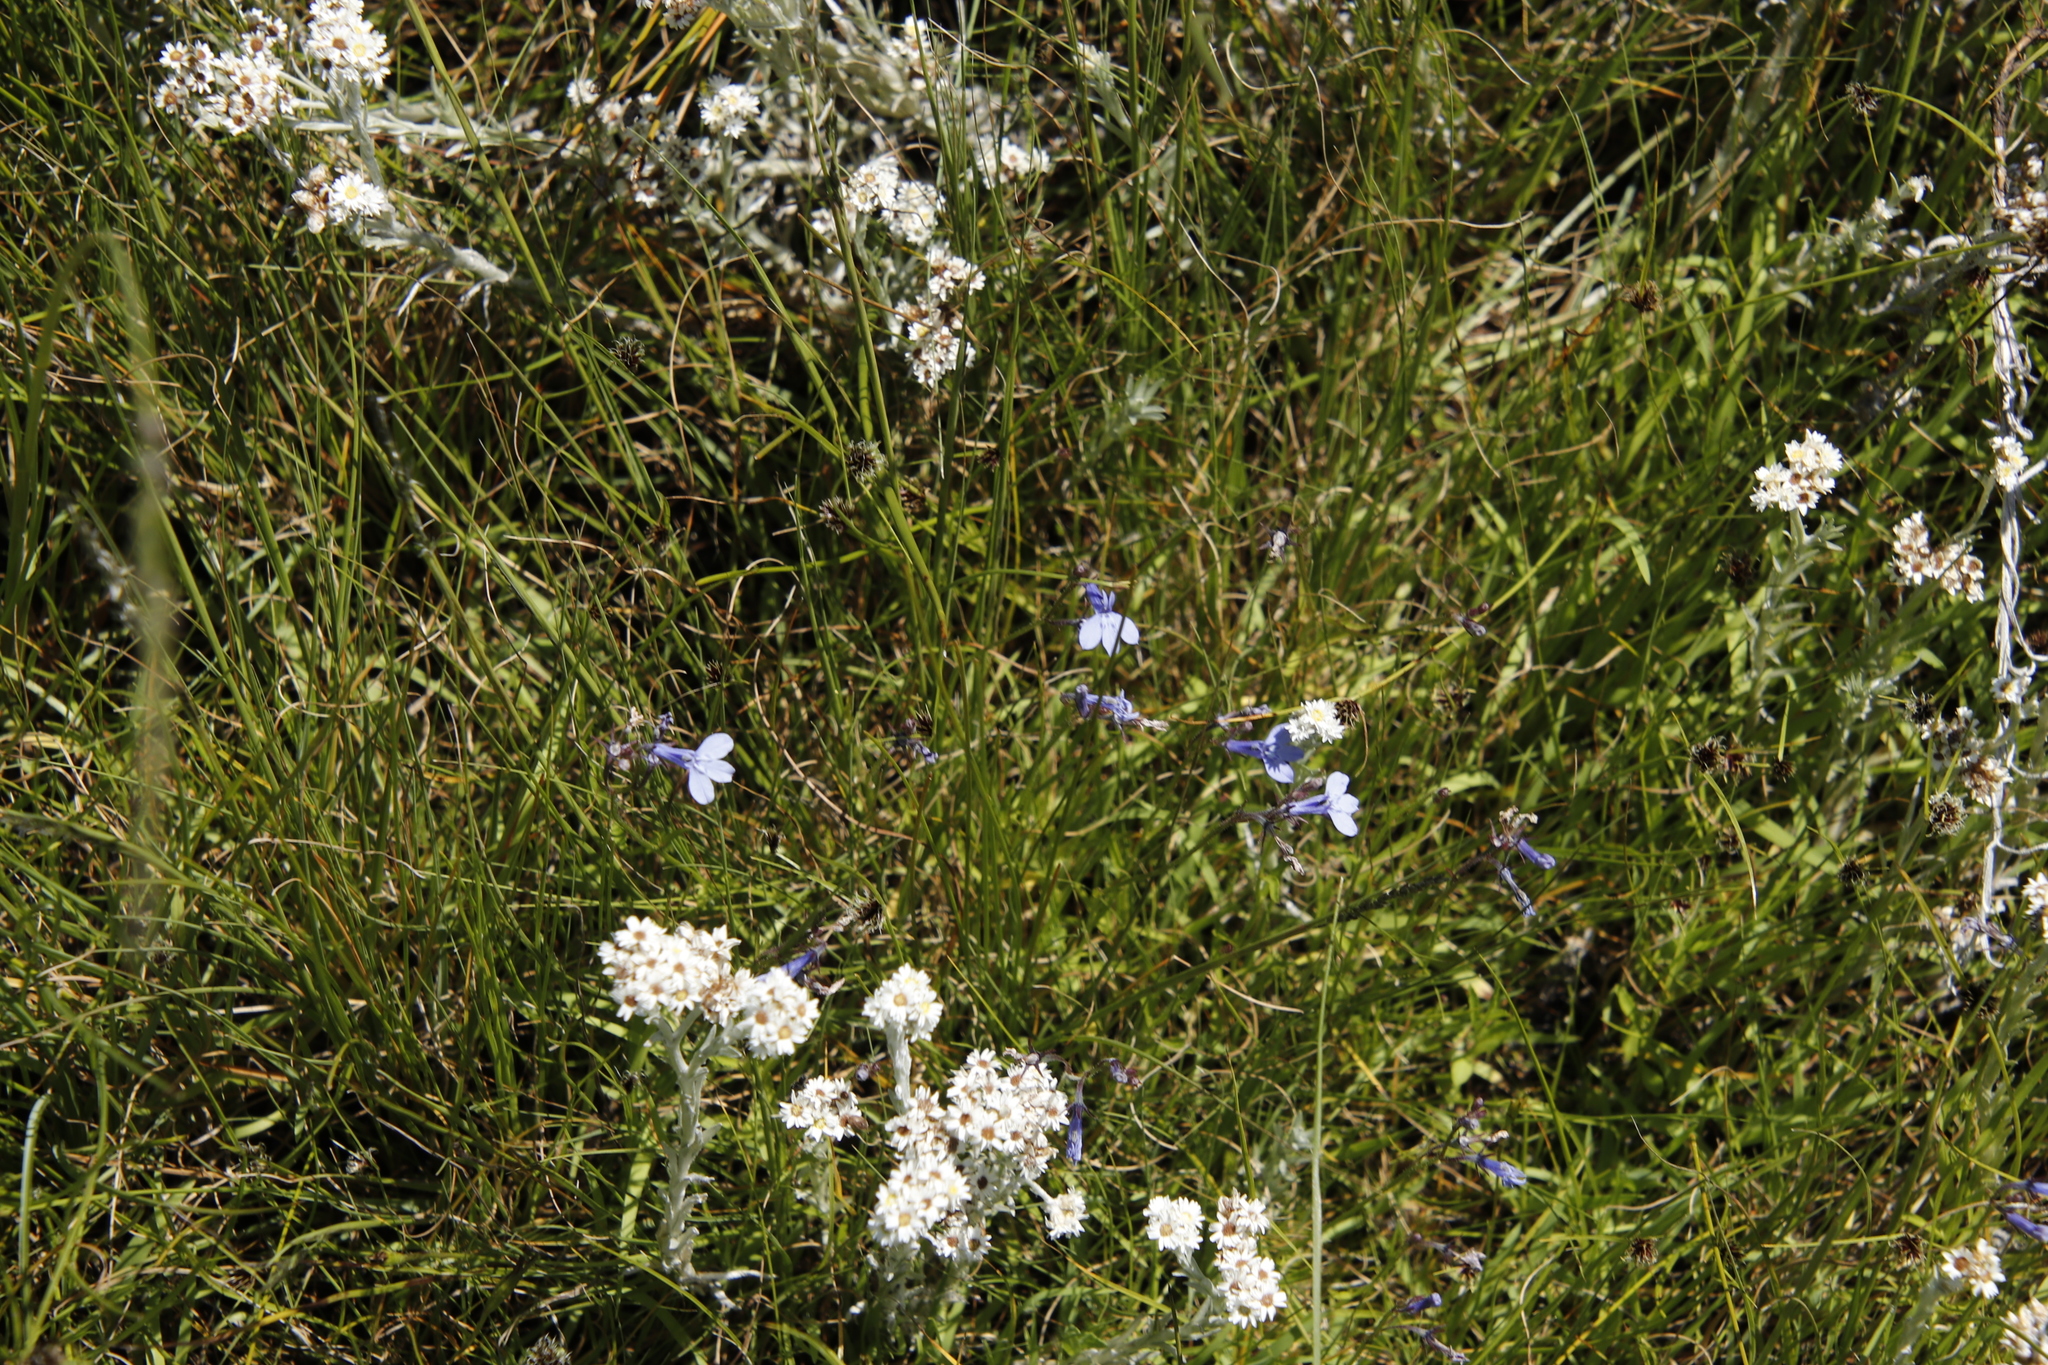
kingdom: Plantae
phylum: Tracheophyta
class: Magnoliopsida
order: Asterales
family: Campanulaceae
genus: Lobelia
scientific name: Lobelia flaccida
